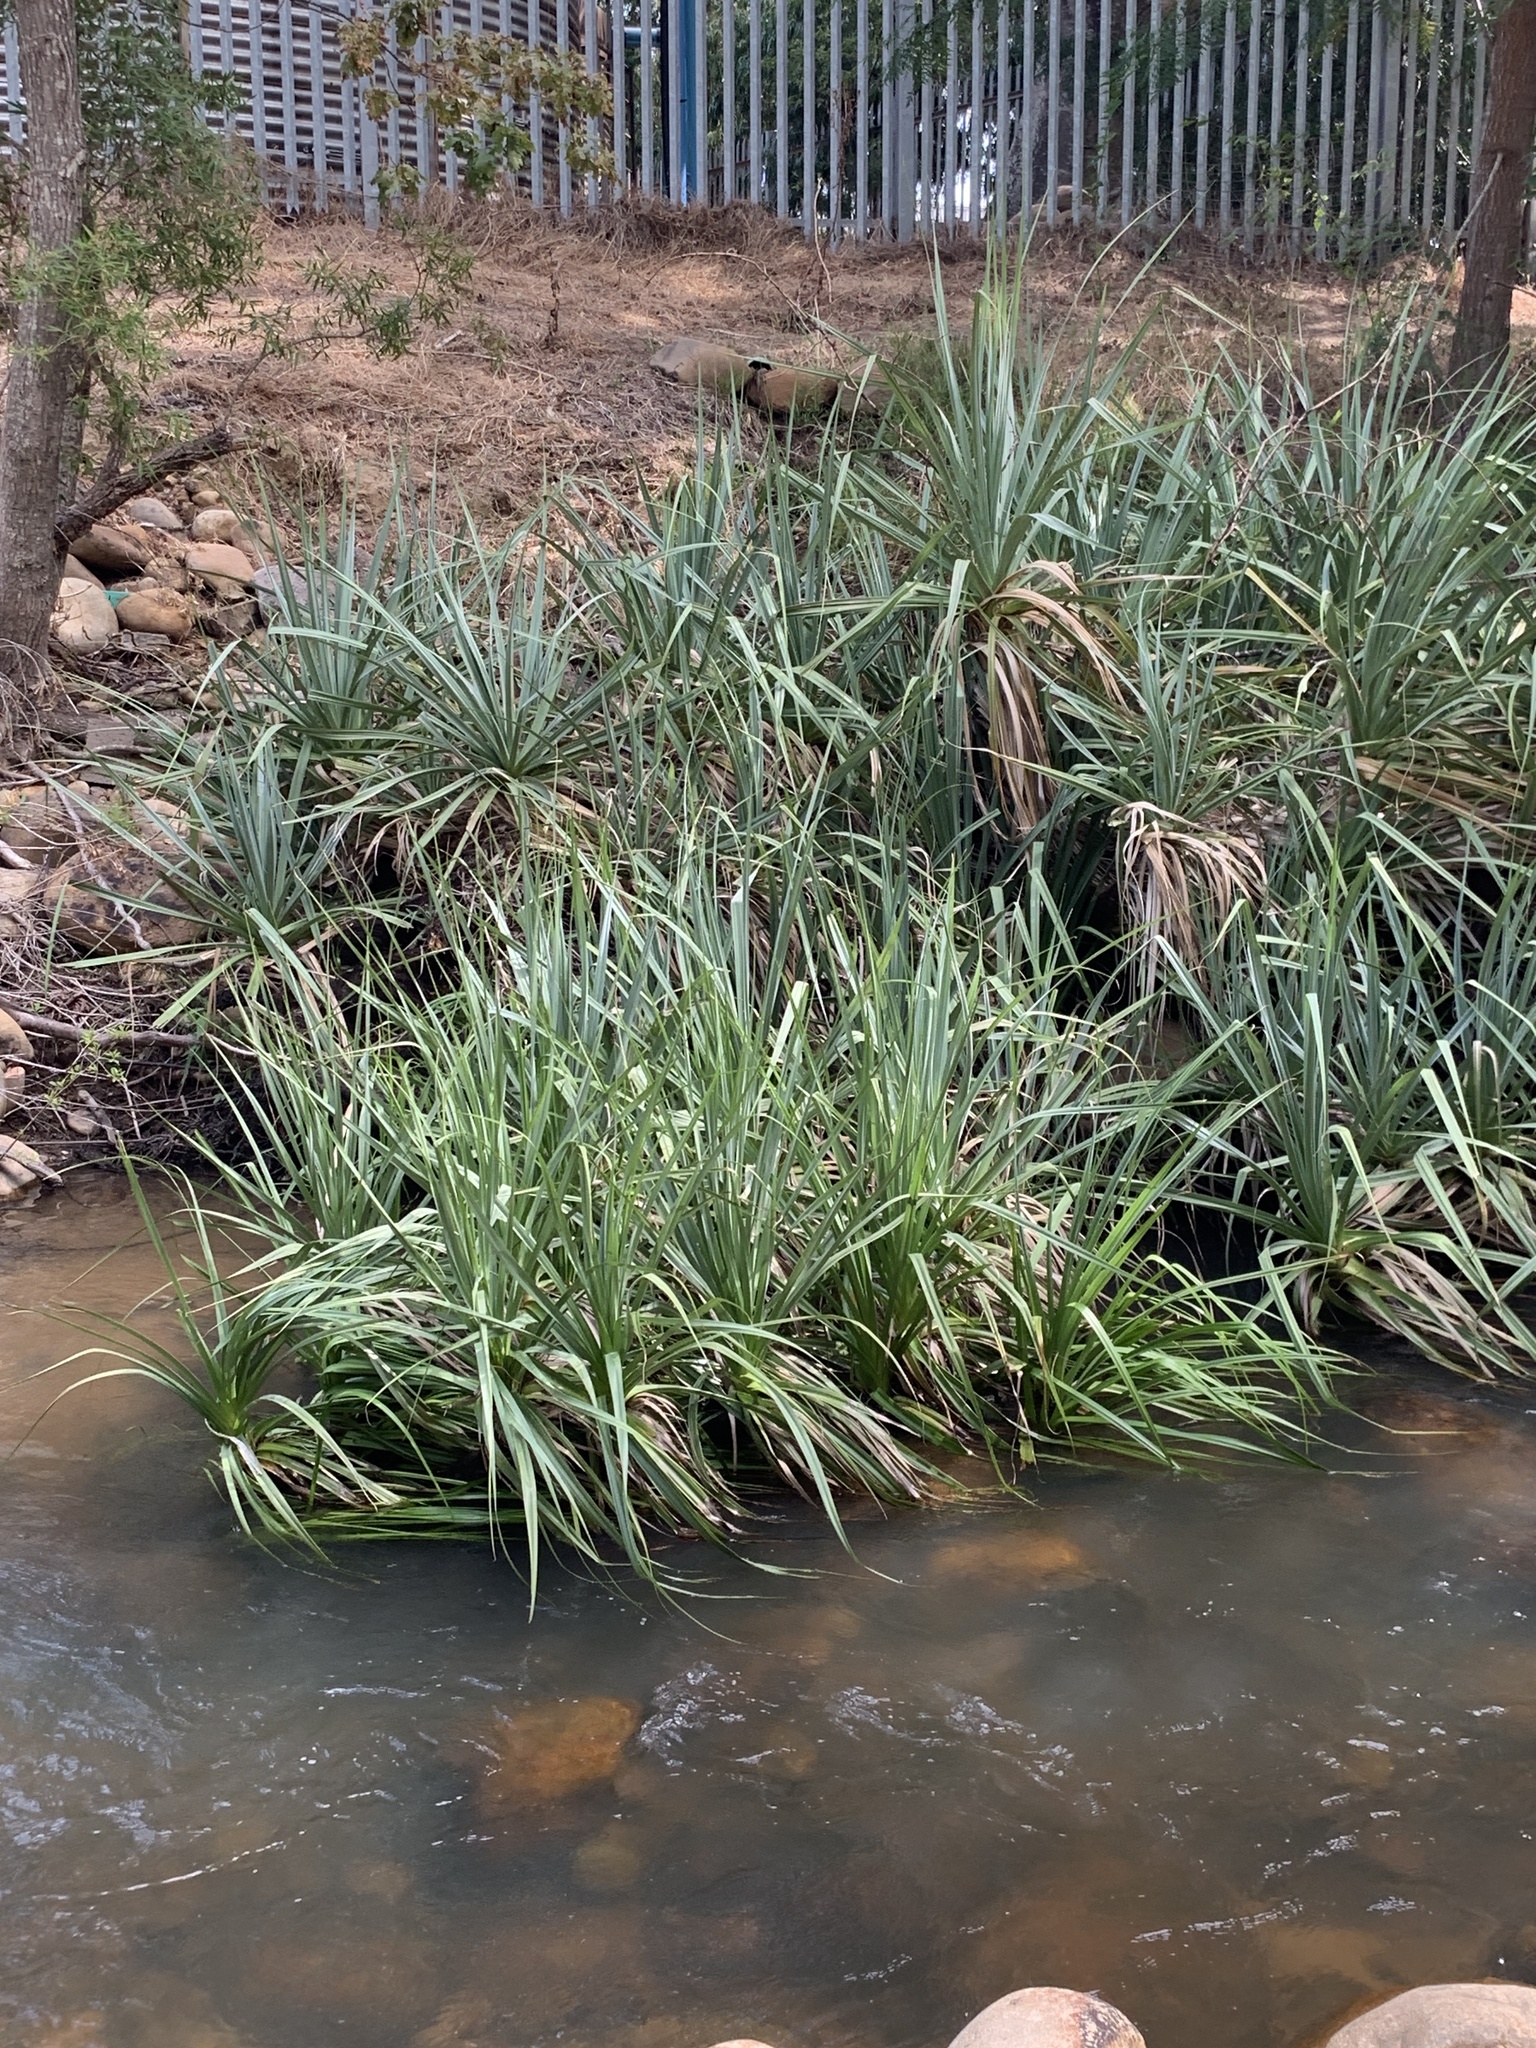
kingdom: Plantae
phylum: Tracheophyta
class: Liliopsida
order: Poales
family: Thurniaceae
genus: Prionium
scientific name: Prionium serratum
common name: Palmiet
